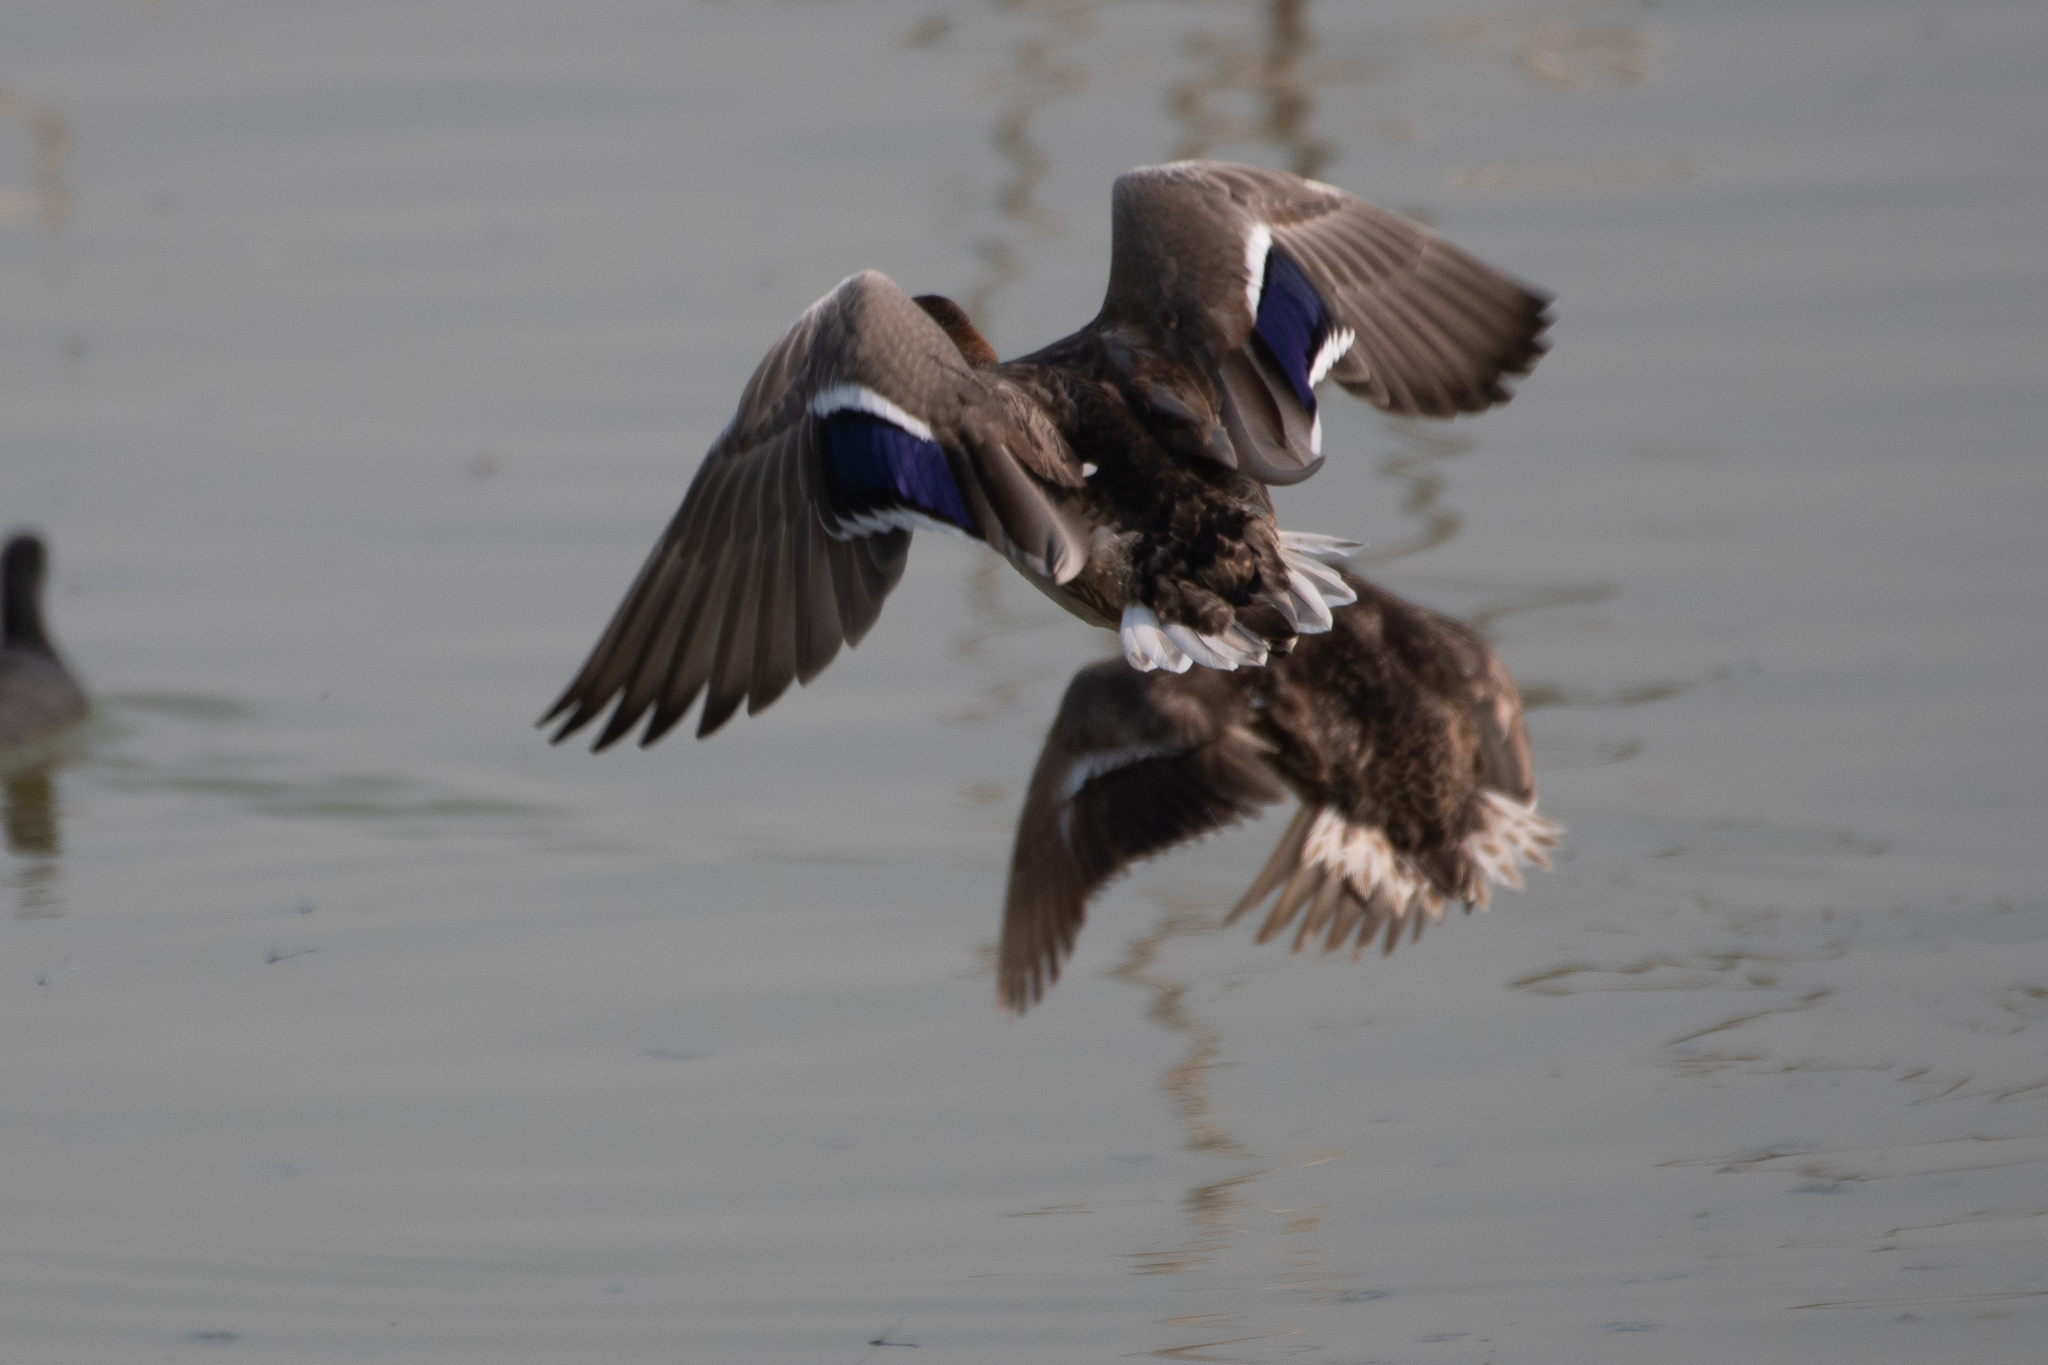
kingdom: Animalia
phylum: Chordata
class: Aves
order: Anseriformes
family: Anatidae
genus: Anas
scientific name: Anas platyrhynchos
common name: Mallard
